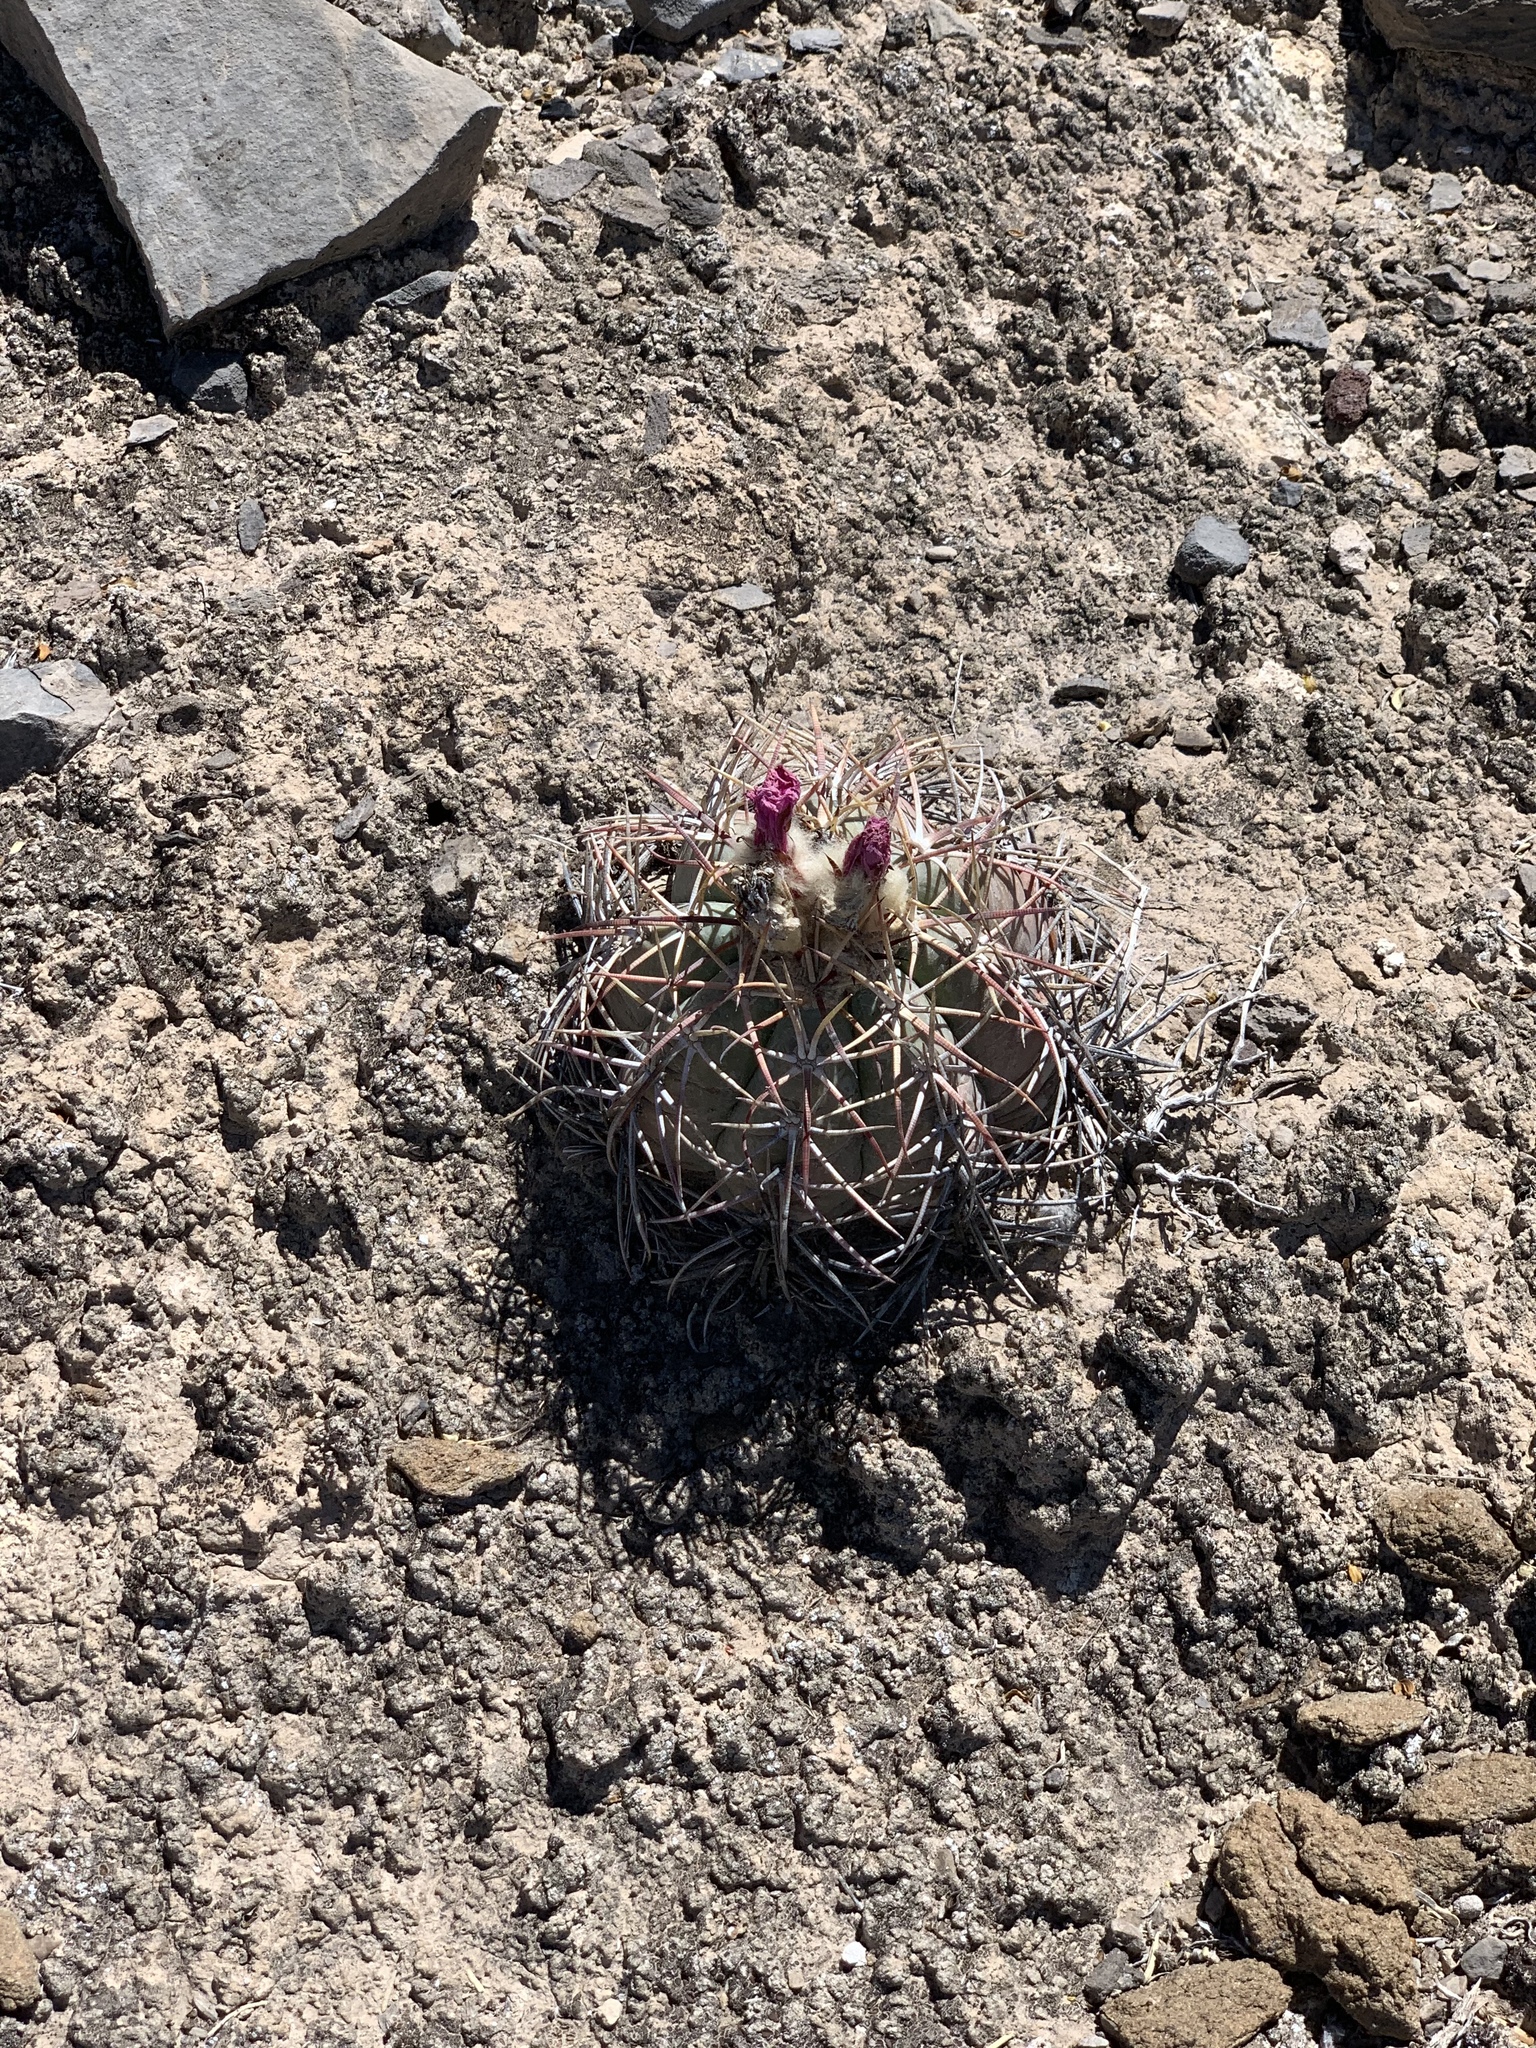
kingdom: Plantae
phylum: Tracheophyta
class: Magnoliopsida
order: Caryophyllales
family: Cactaceae
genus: Echinocactus
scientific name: Echinocactus horizonthalonius
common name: Devilshead
